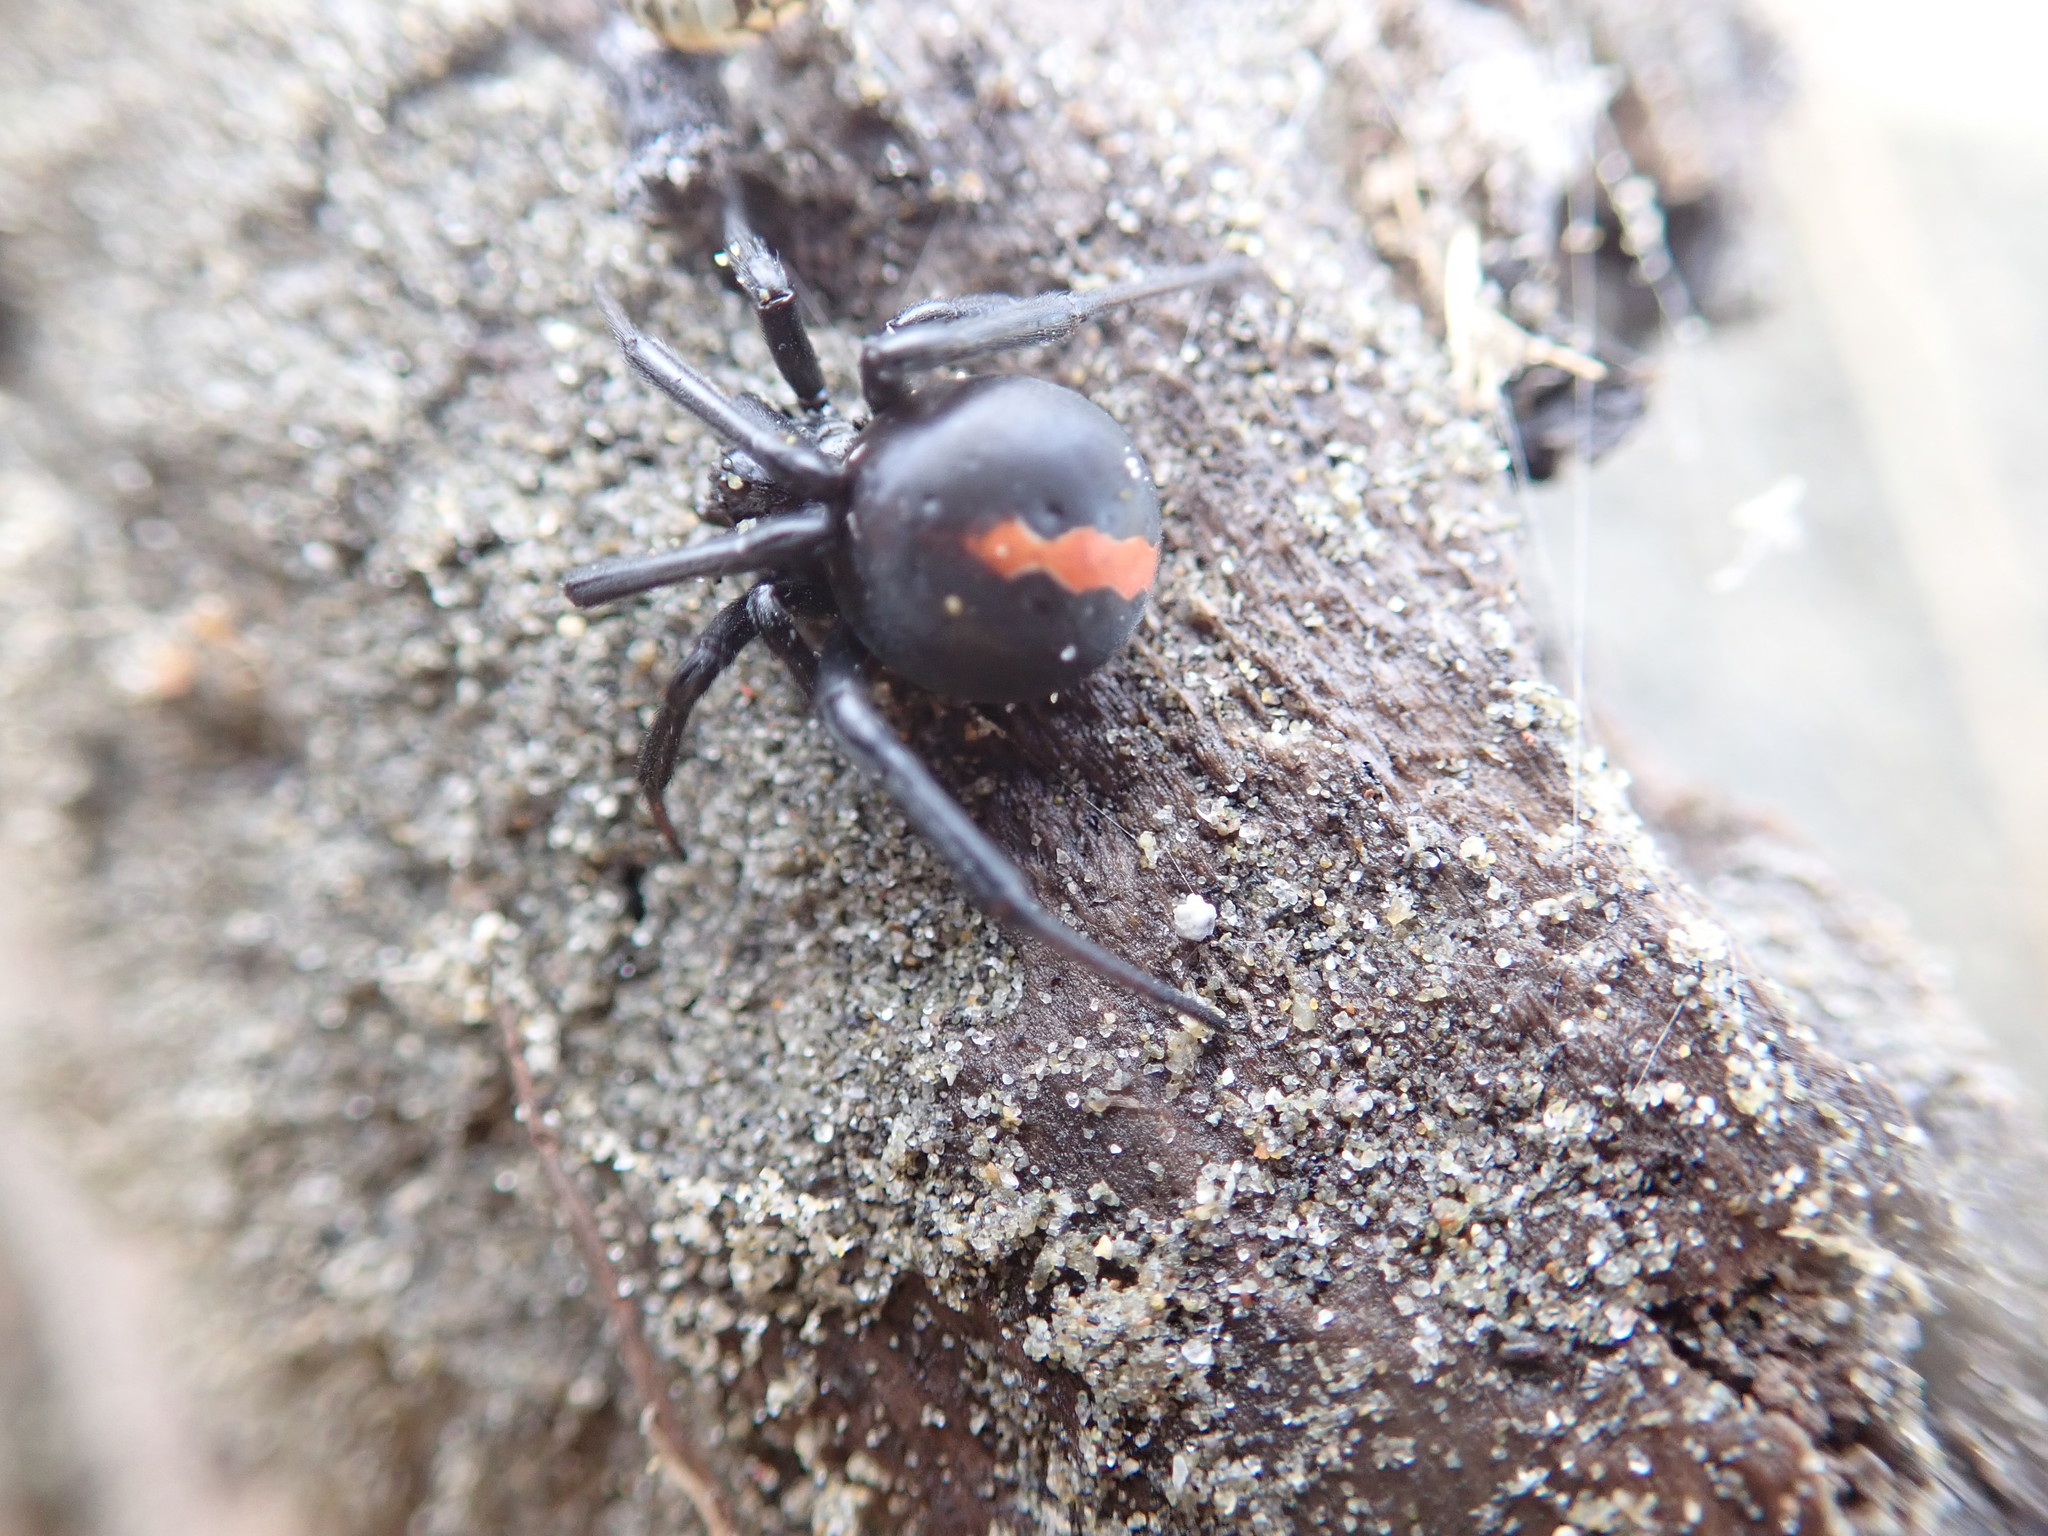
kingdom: Animalia
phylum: Arthropoda
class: Arachnida
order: Araneae
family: Theridiidae
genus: Latrodectus
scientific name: Latrodectus katipo
